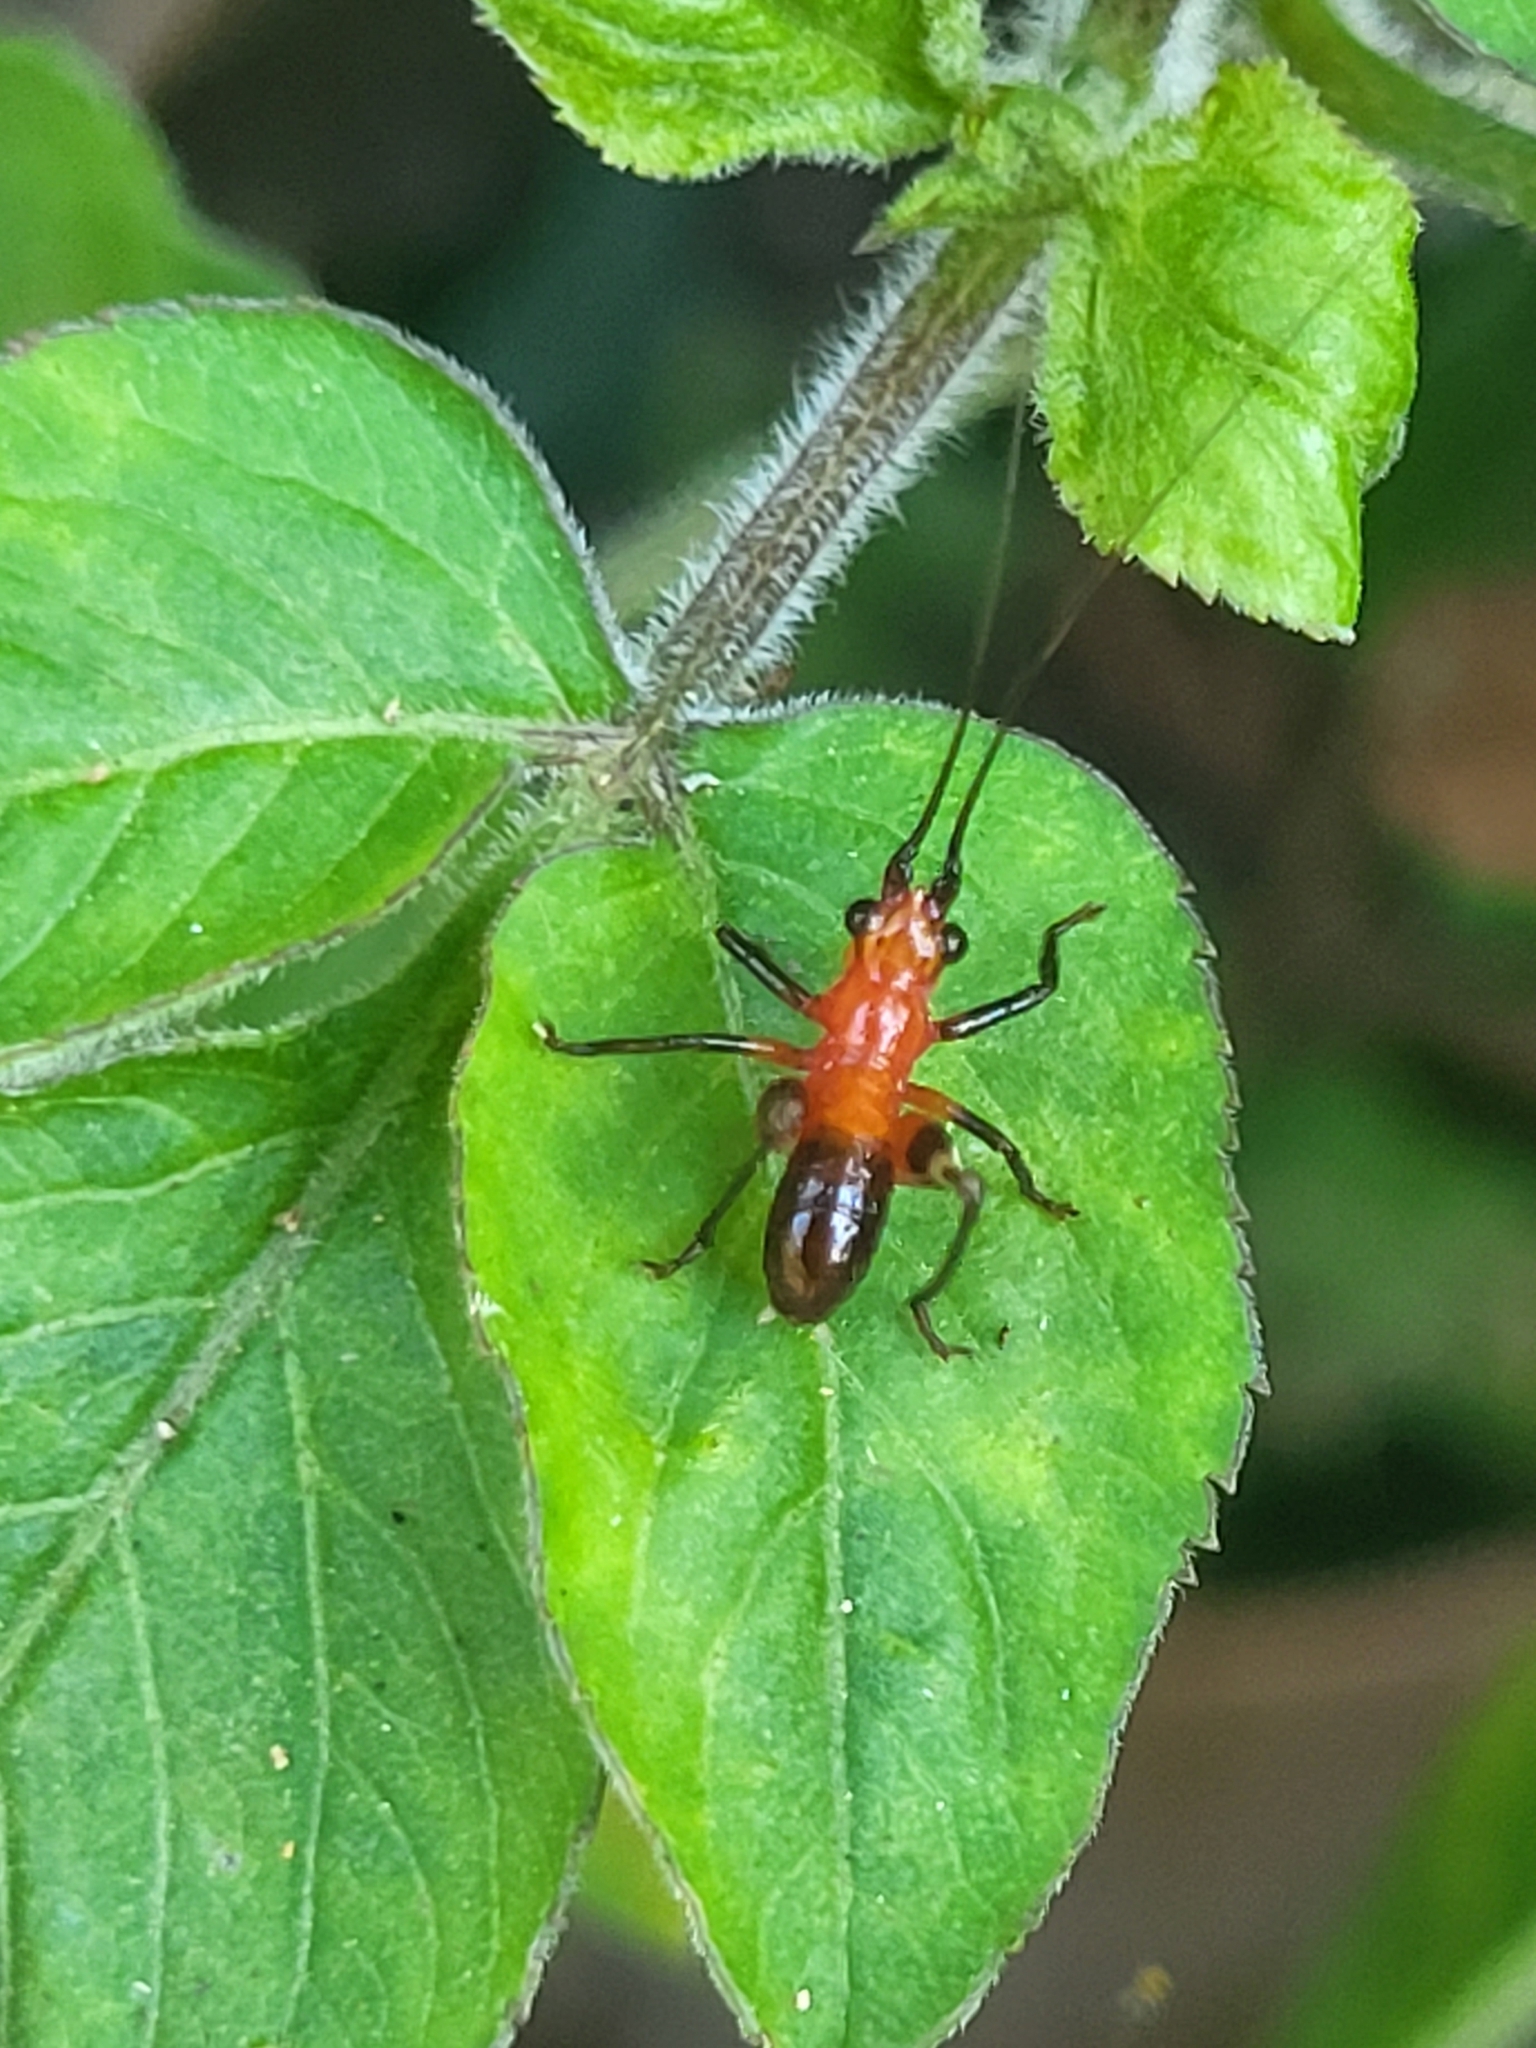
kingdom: Animalia
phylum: Arthropoda
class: Insecta
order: Orthoptera
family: Tettigoniidae
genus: Conocephalus
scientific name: Conocephalus melaenus
